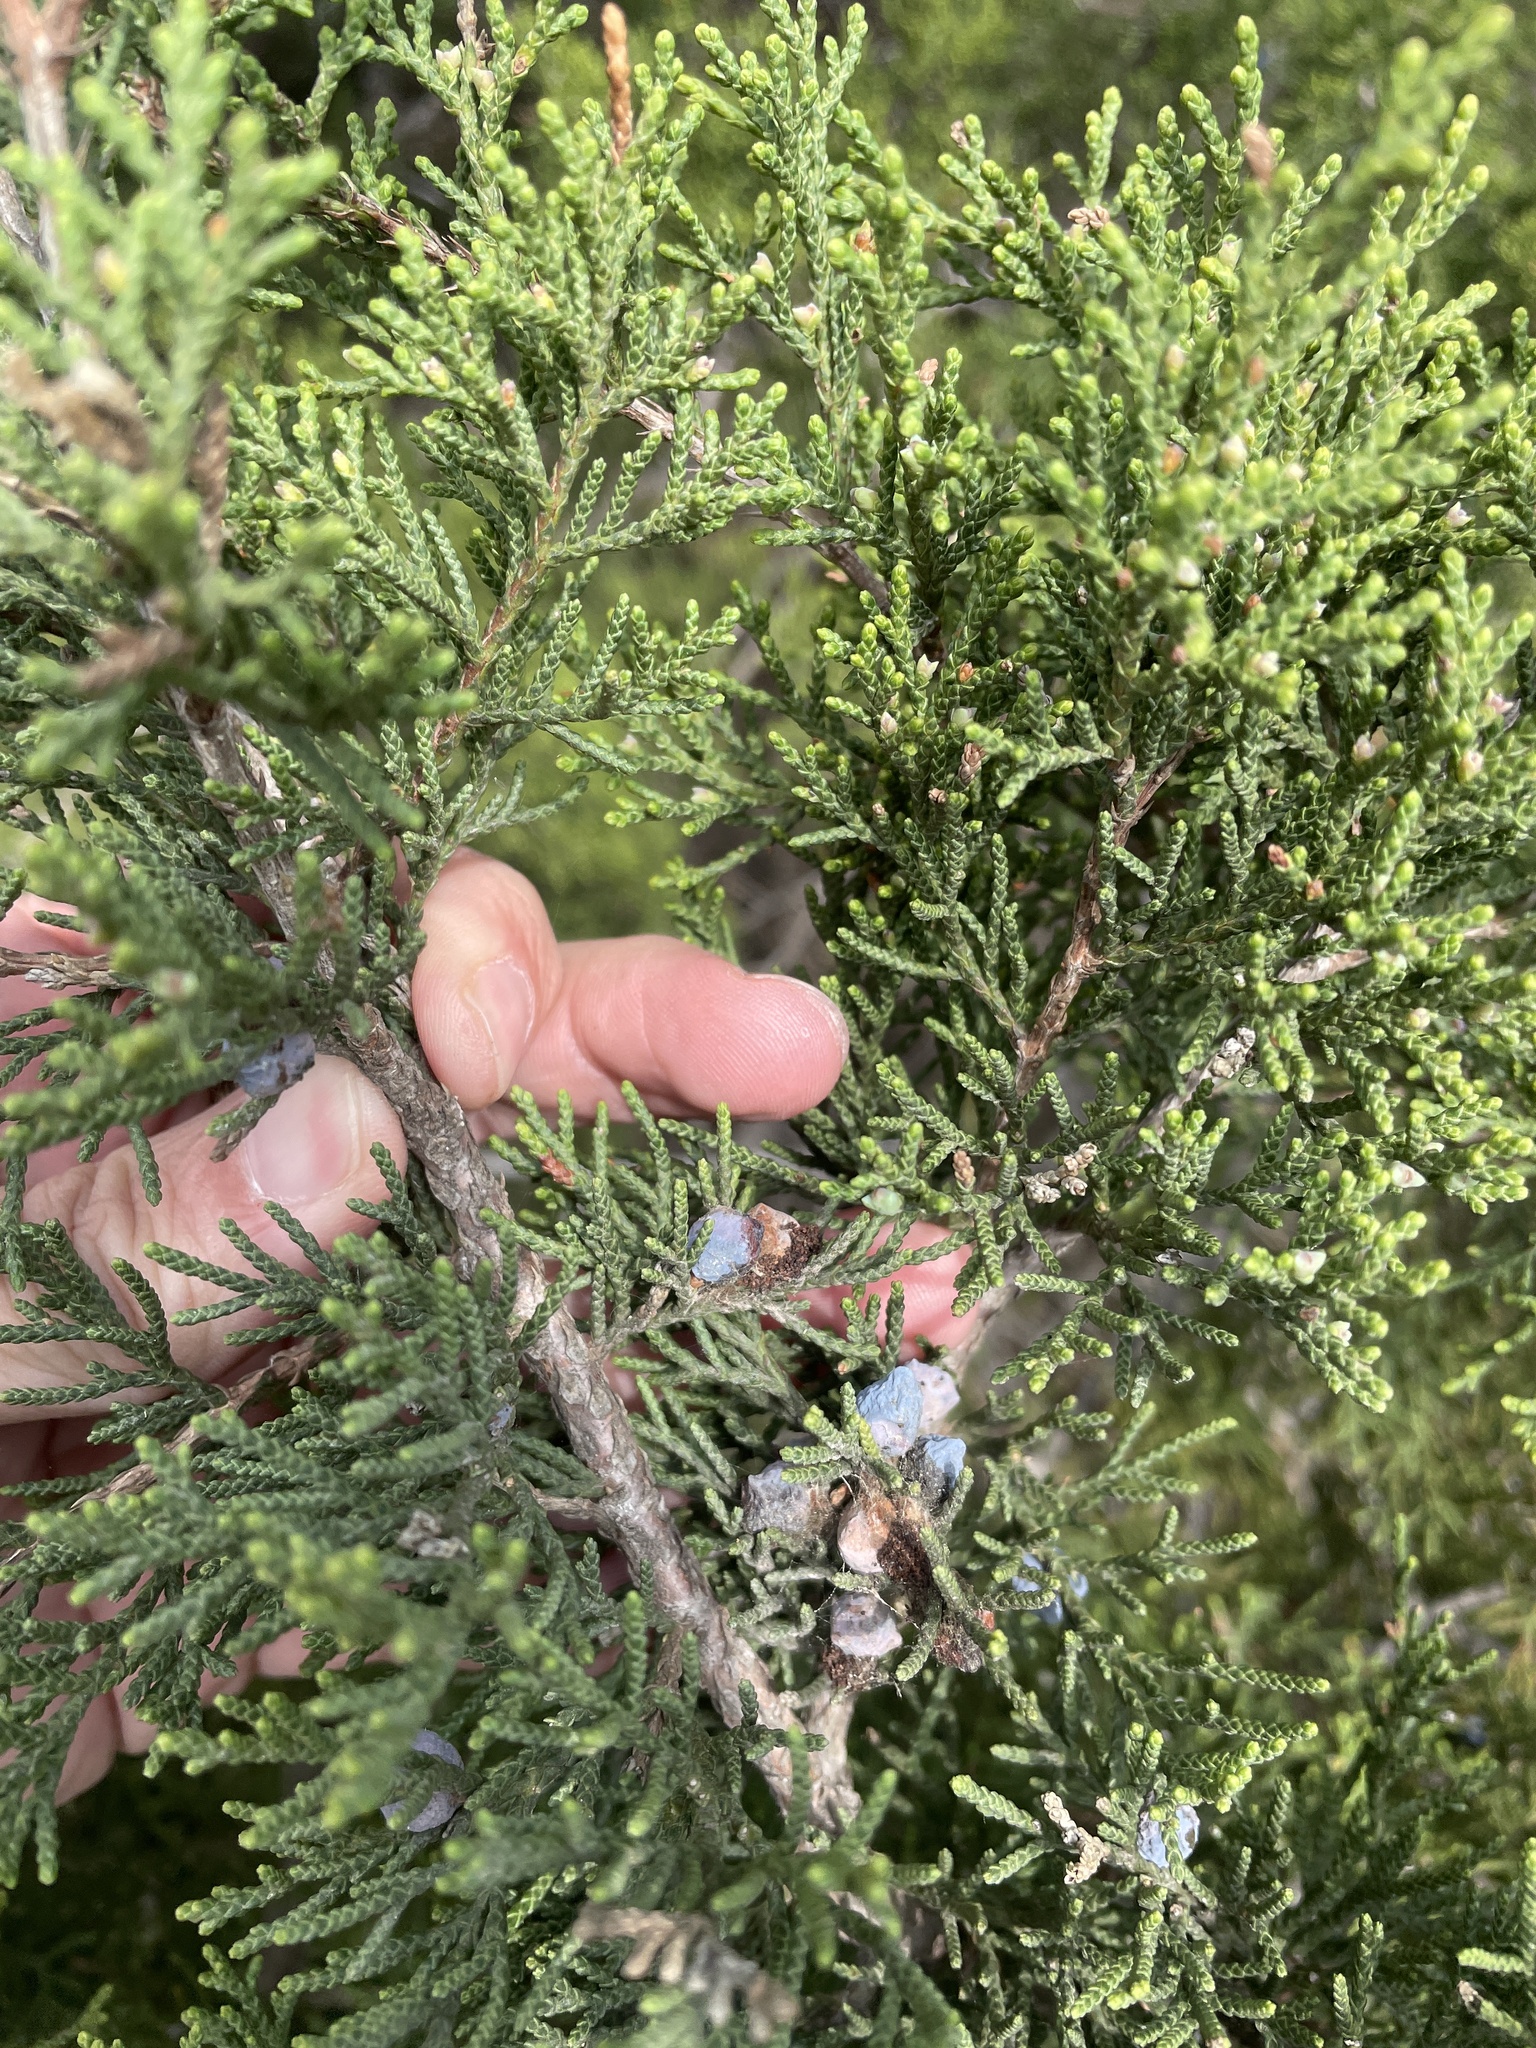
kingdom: Plantae
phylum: Tracheophyta
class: Pinopsida
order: Pinales
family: Cupressaceae
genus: Juniperus
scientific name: Juniperus ashei
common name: Mexican juniper
